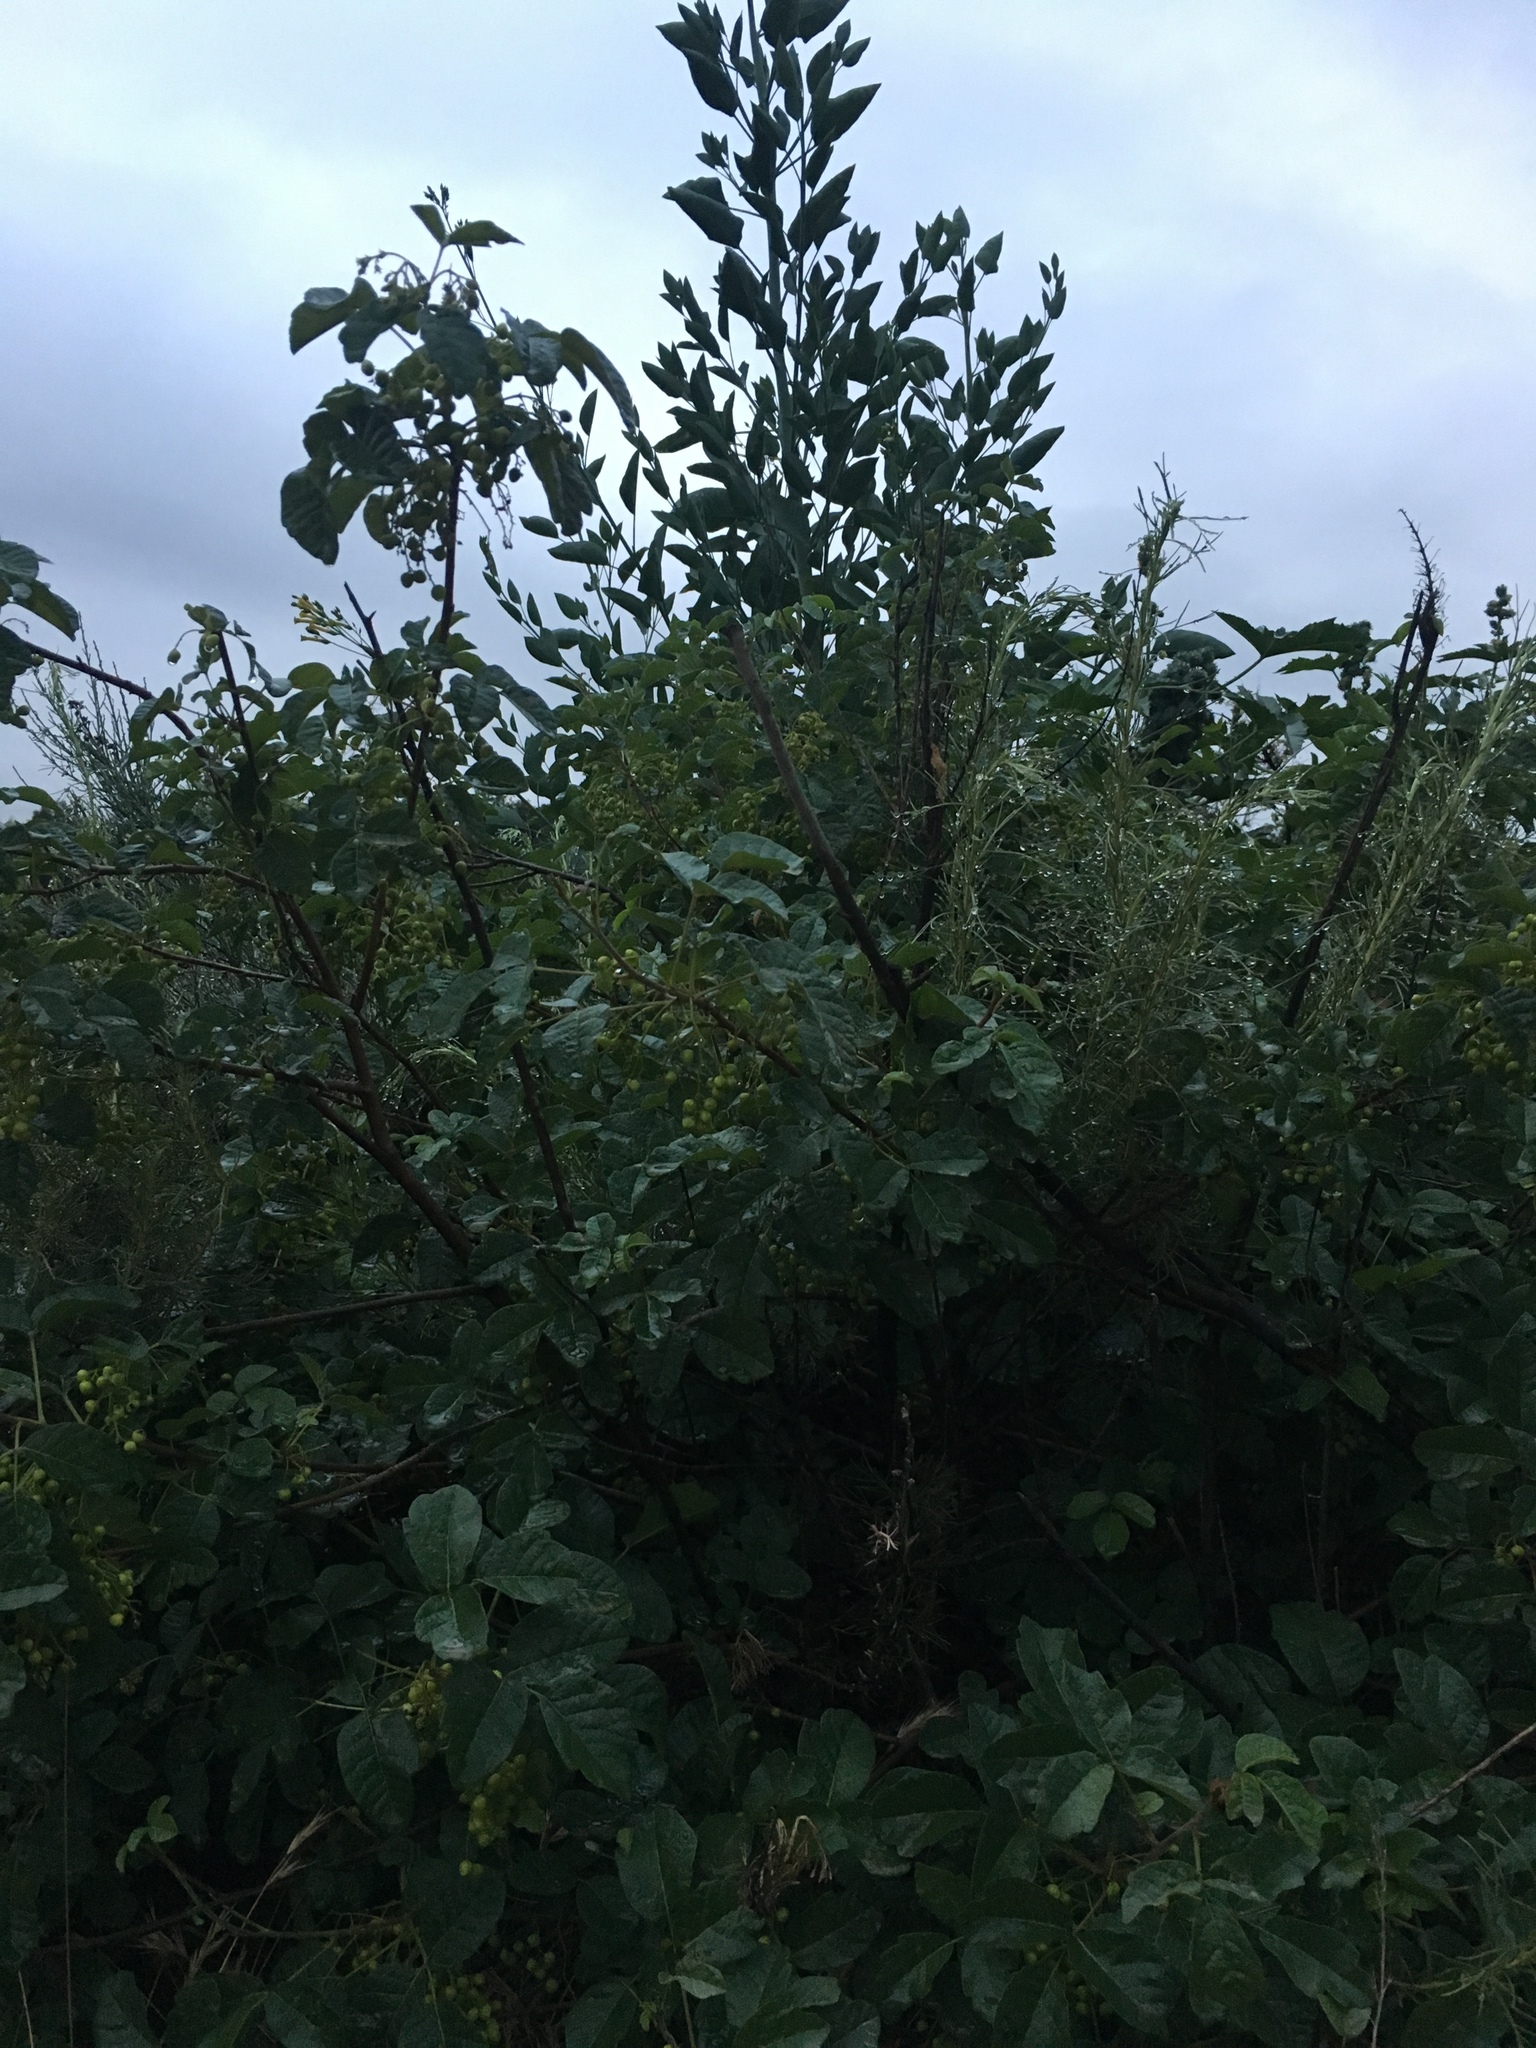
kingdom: Plantae
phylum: Tracheophyta
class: Magnoliopsida
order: Sapindales
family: Anacardiaceae
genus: Toxicodendron
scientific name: Toxicodendron diversilobum
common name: Pacific poison-oak
